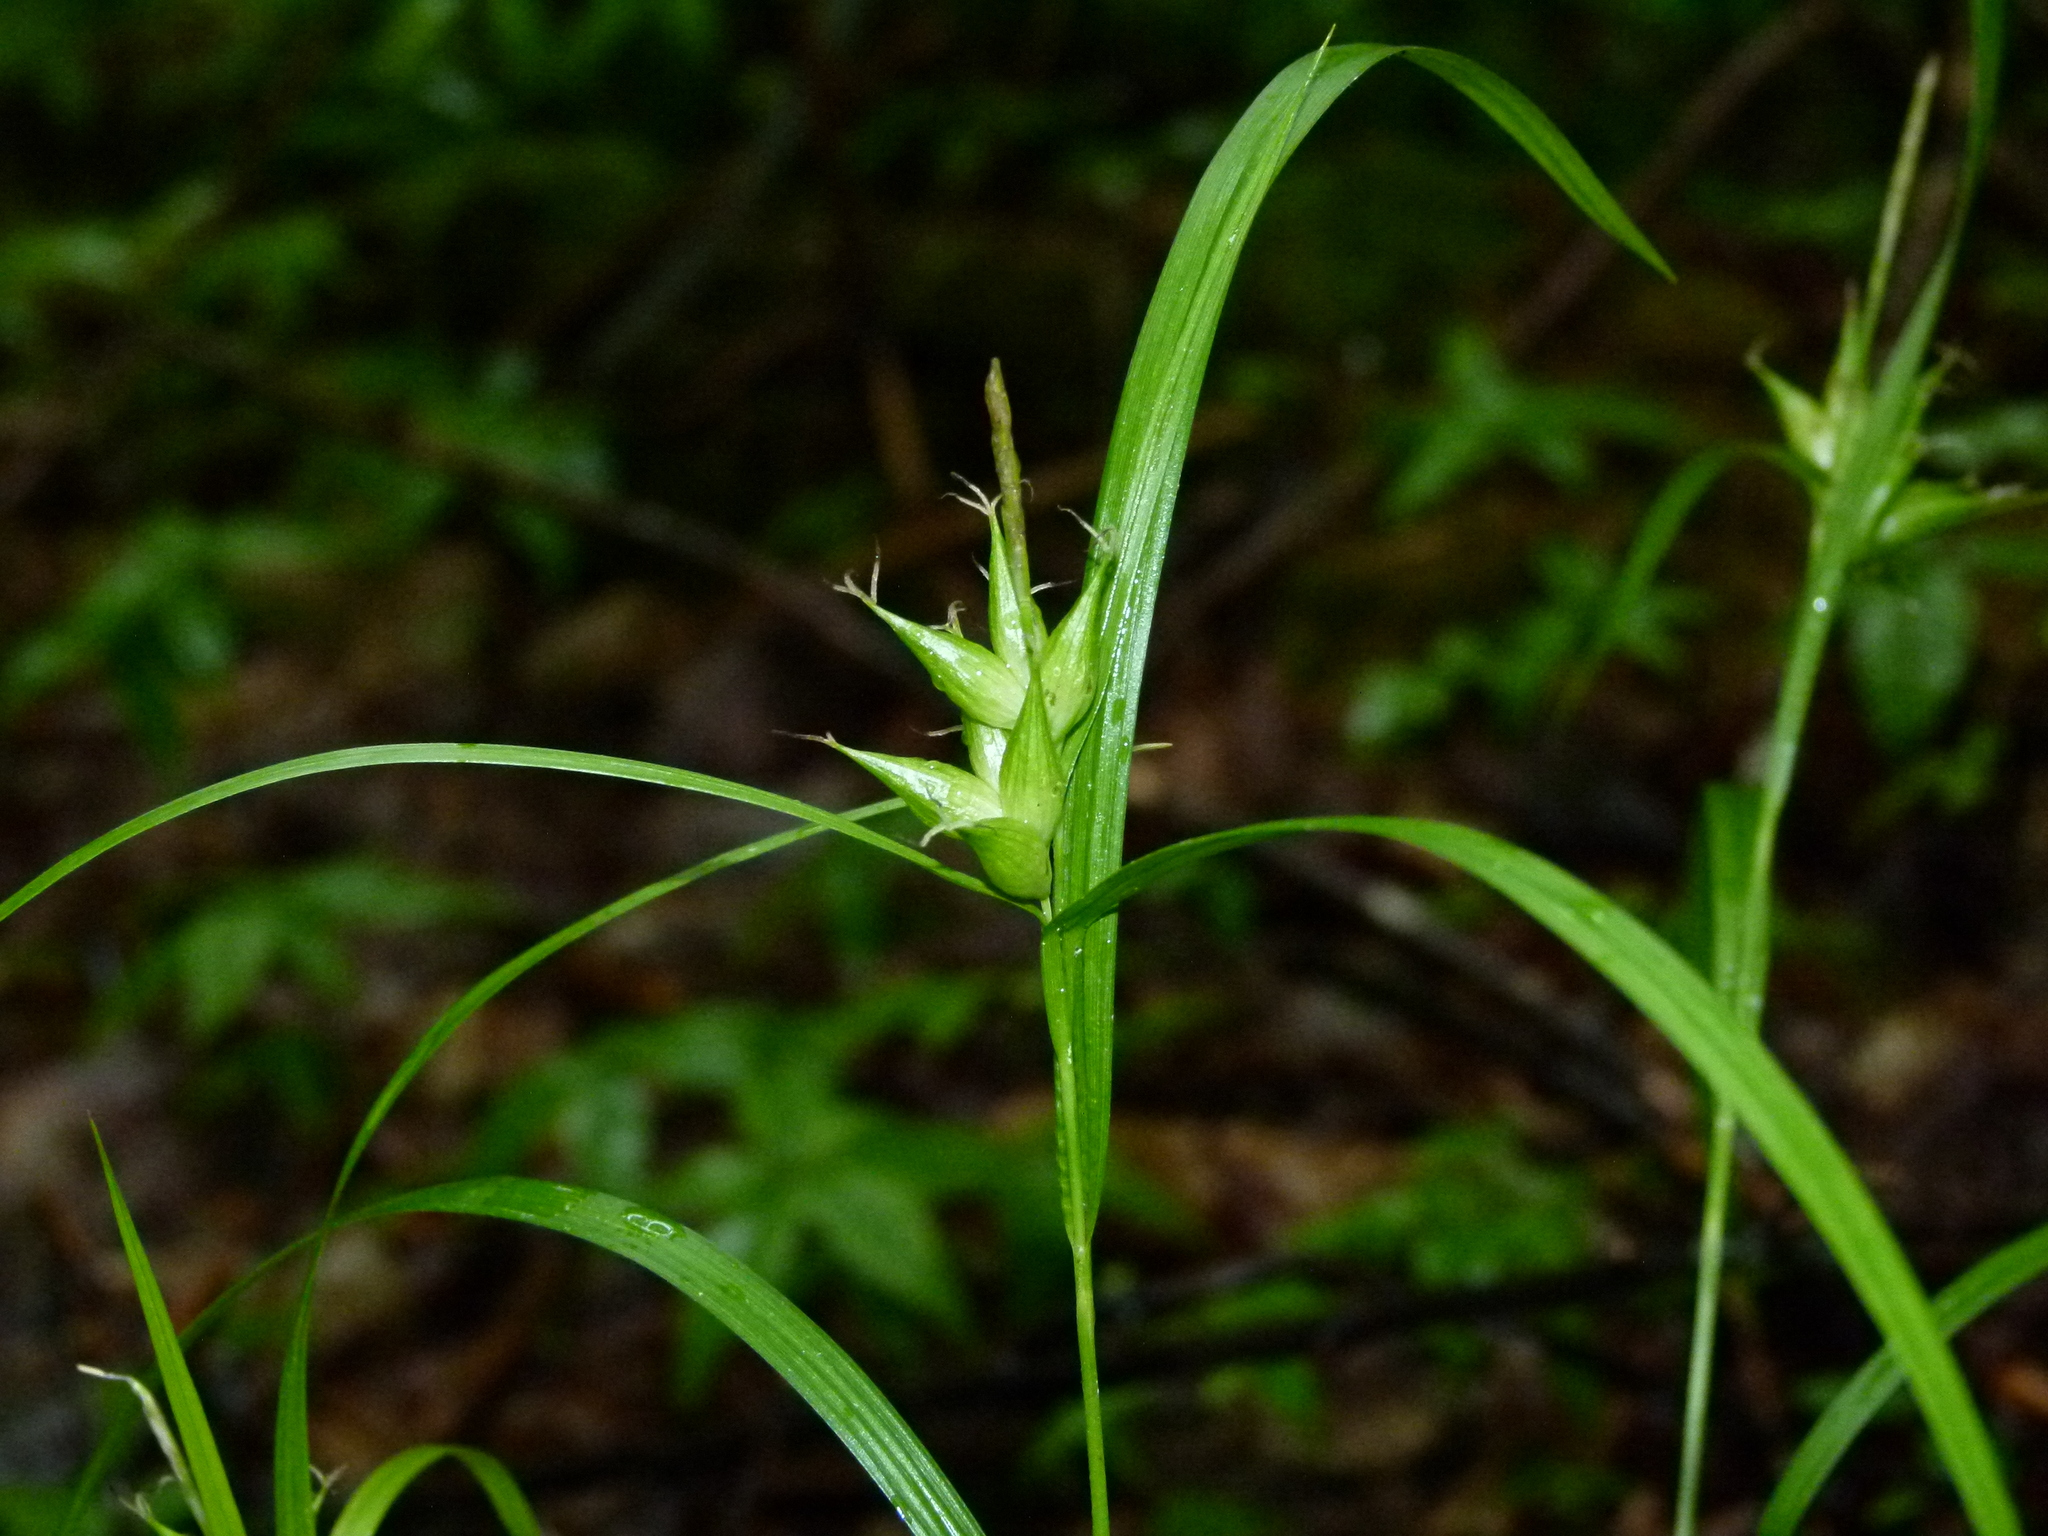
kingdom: Plantae
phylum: Tracheophyta
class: Liliopsida
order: Poales
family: Cyperaceae
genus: Carex
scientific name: Carex intumescens
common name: Greater bladder sedge
